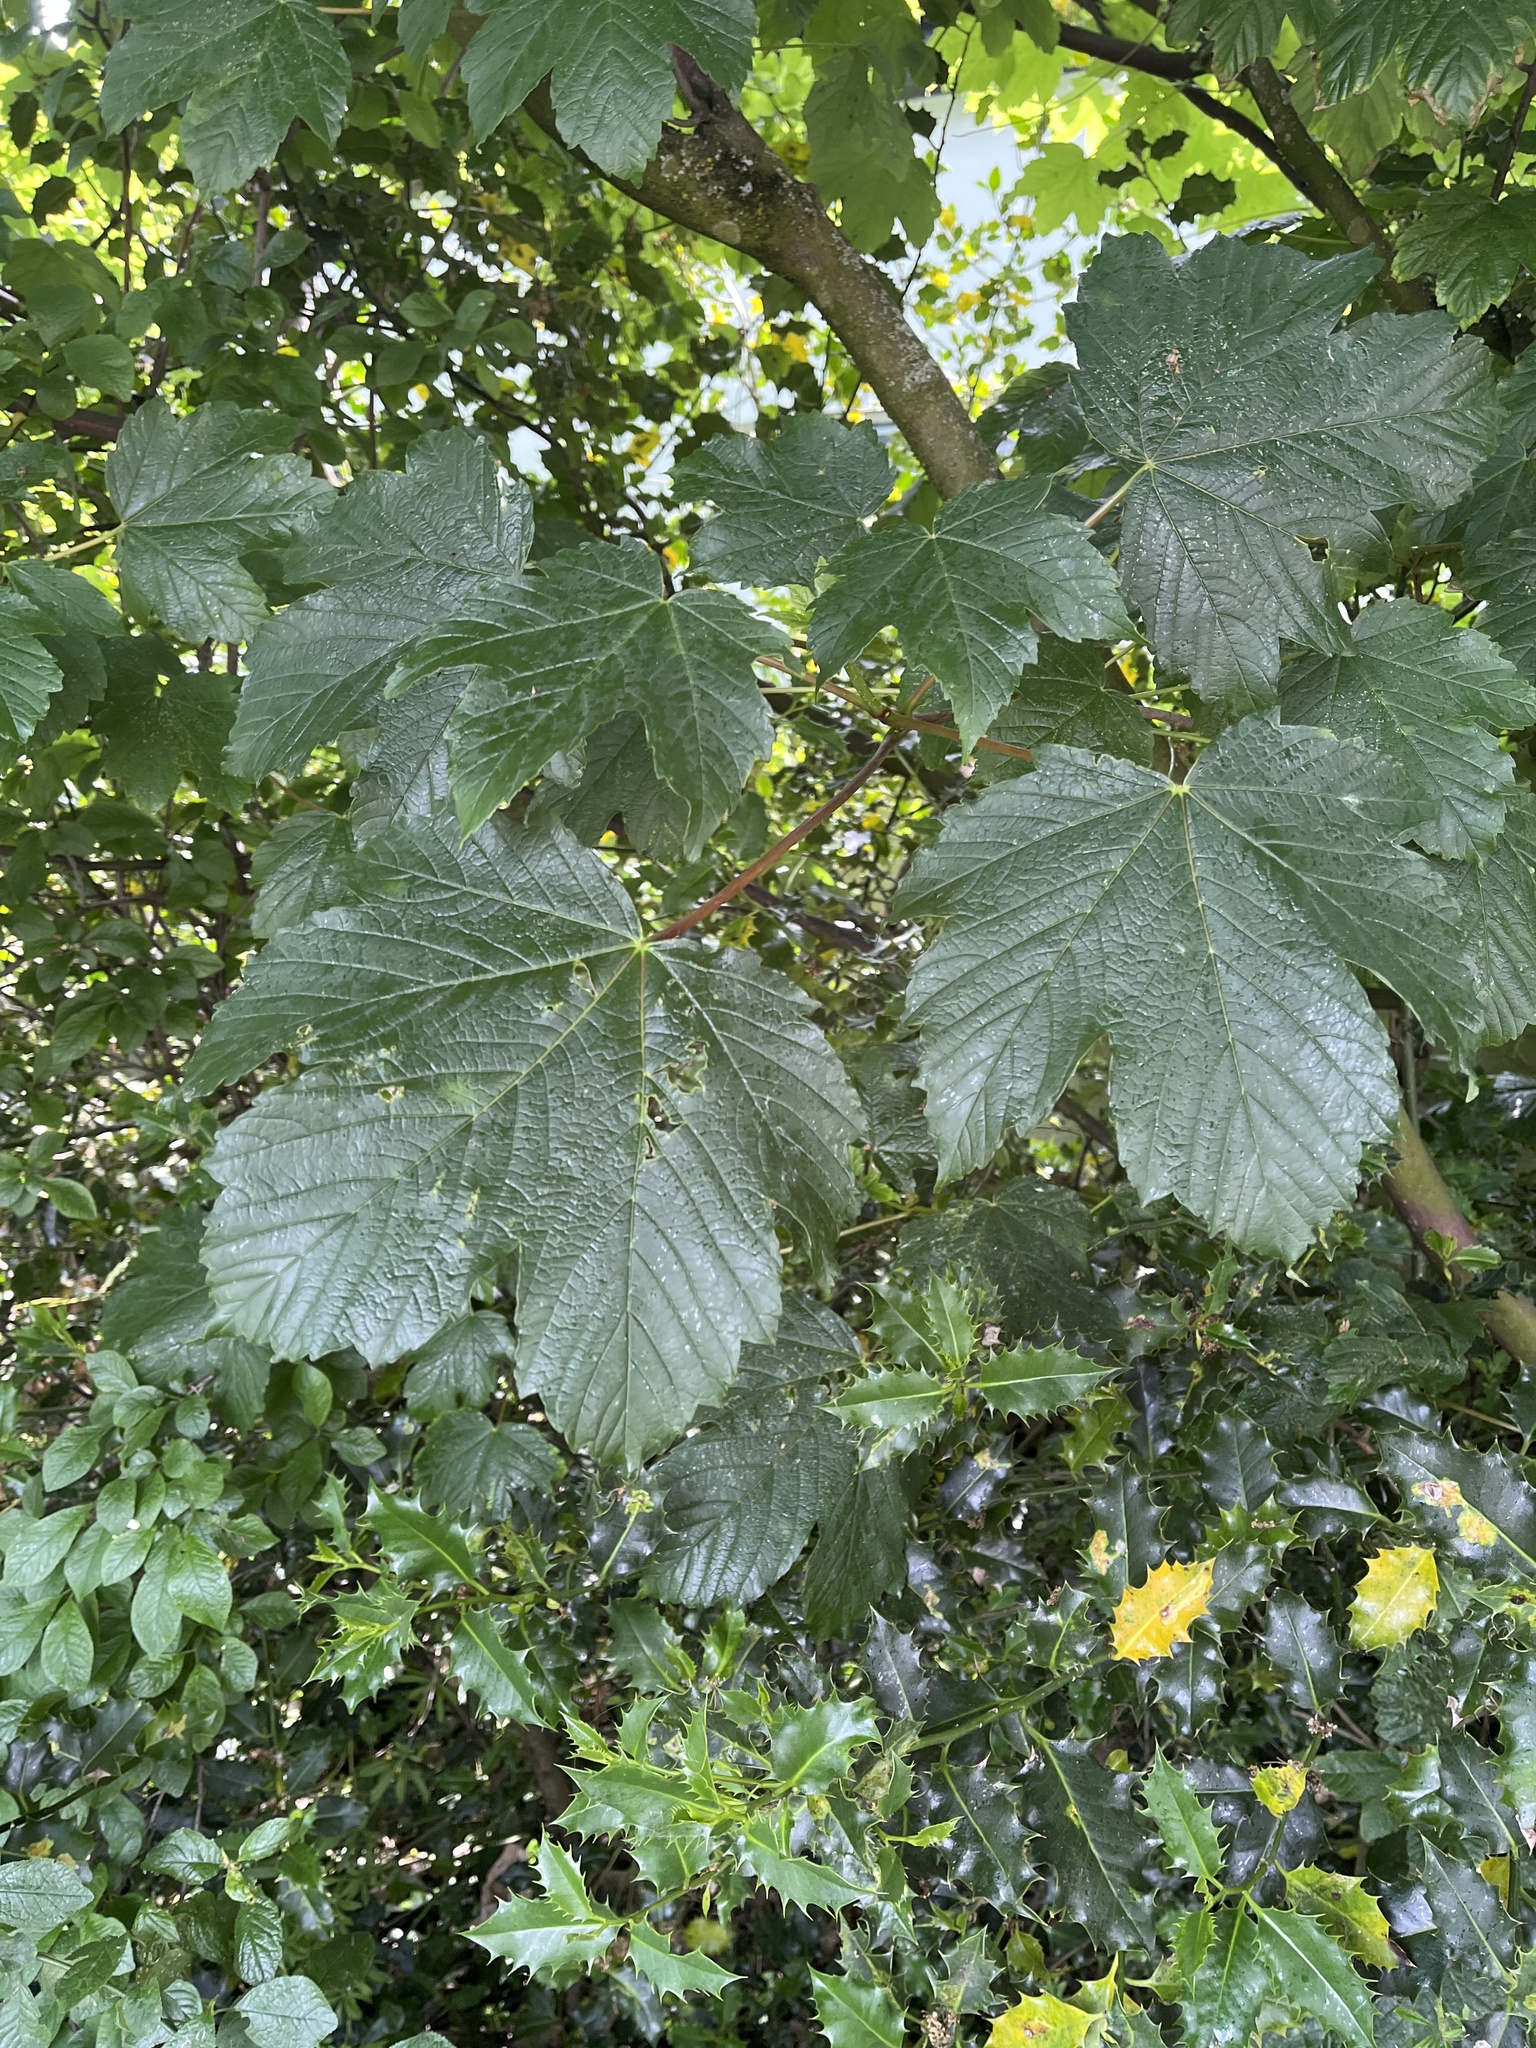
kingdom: Plantae
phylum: Tracheophyta
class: Magnoliopsida
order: Sapindales
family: Sapindaceae
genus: Acer
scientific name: Acer pseudoplatanus
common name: Sycamore
